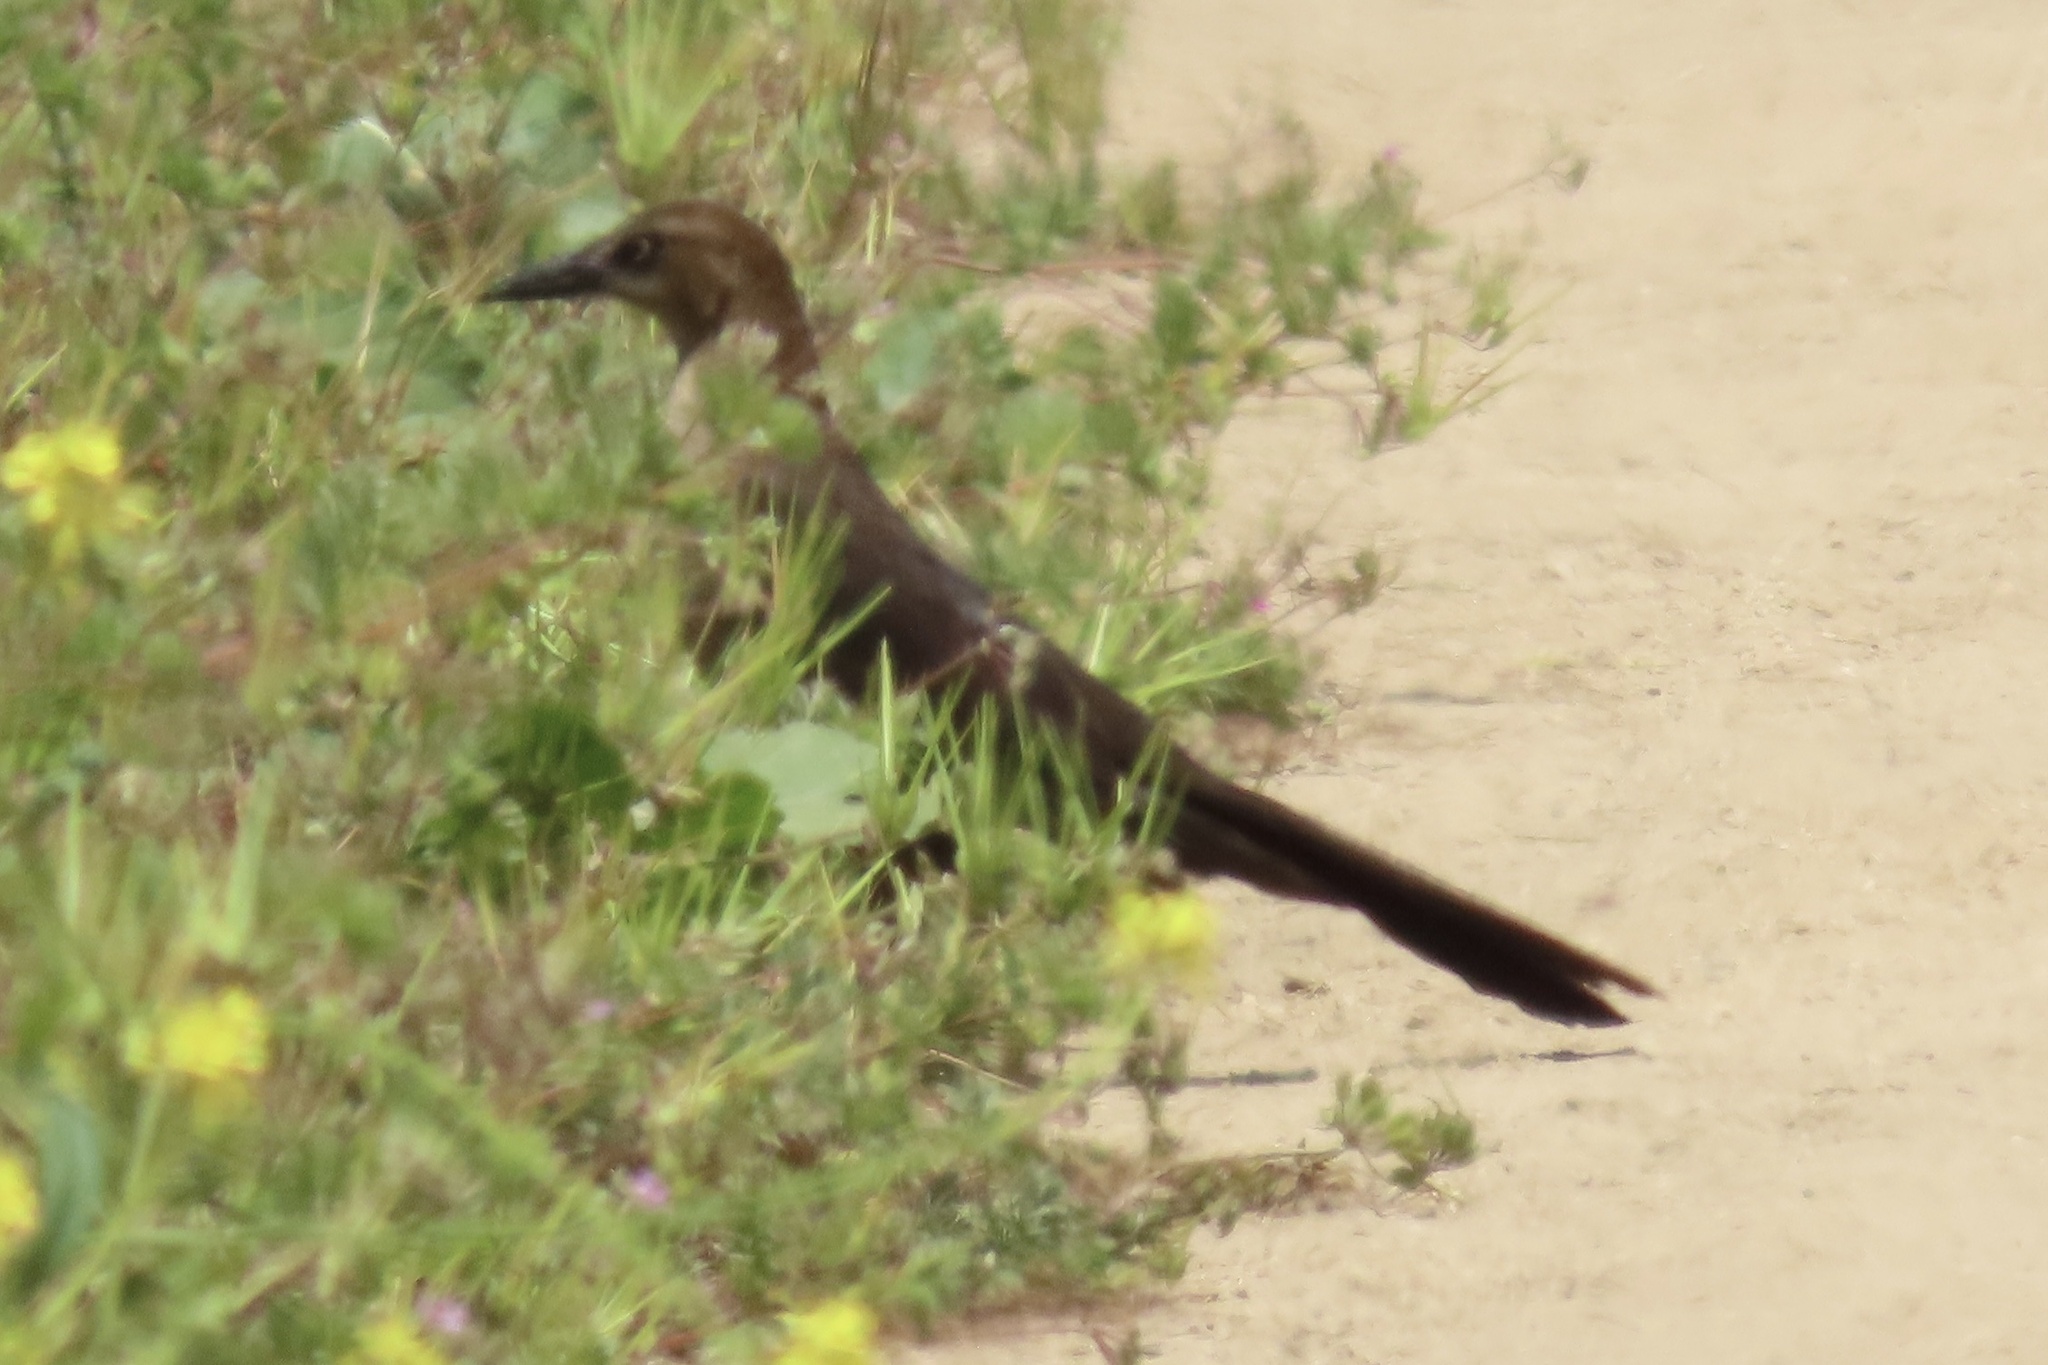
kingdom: Animalia
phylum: Chordata
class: Aves
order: Passeriformes
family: Icteridae
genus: Quiscalus
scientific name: Quiscalus mexicanus
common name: Great-tailed grackle
